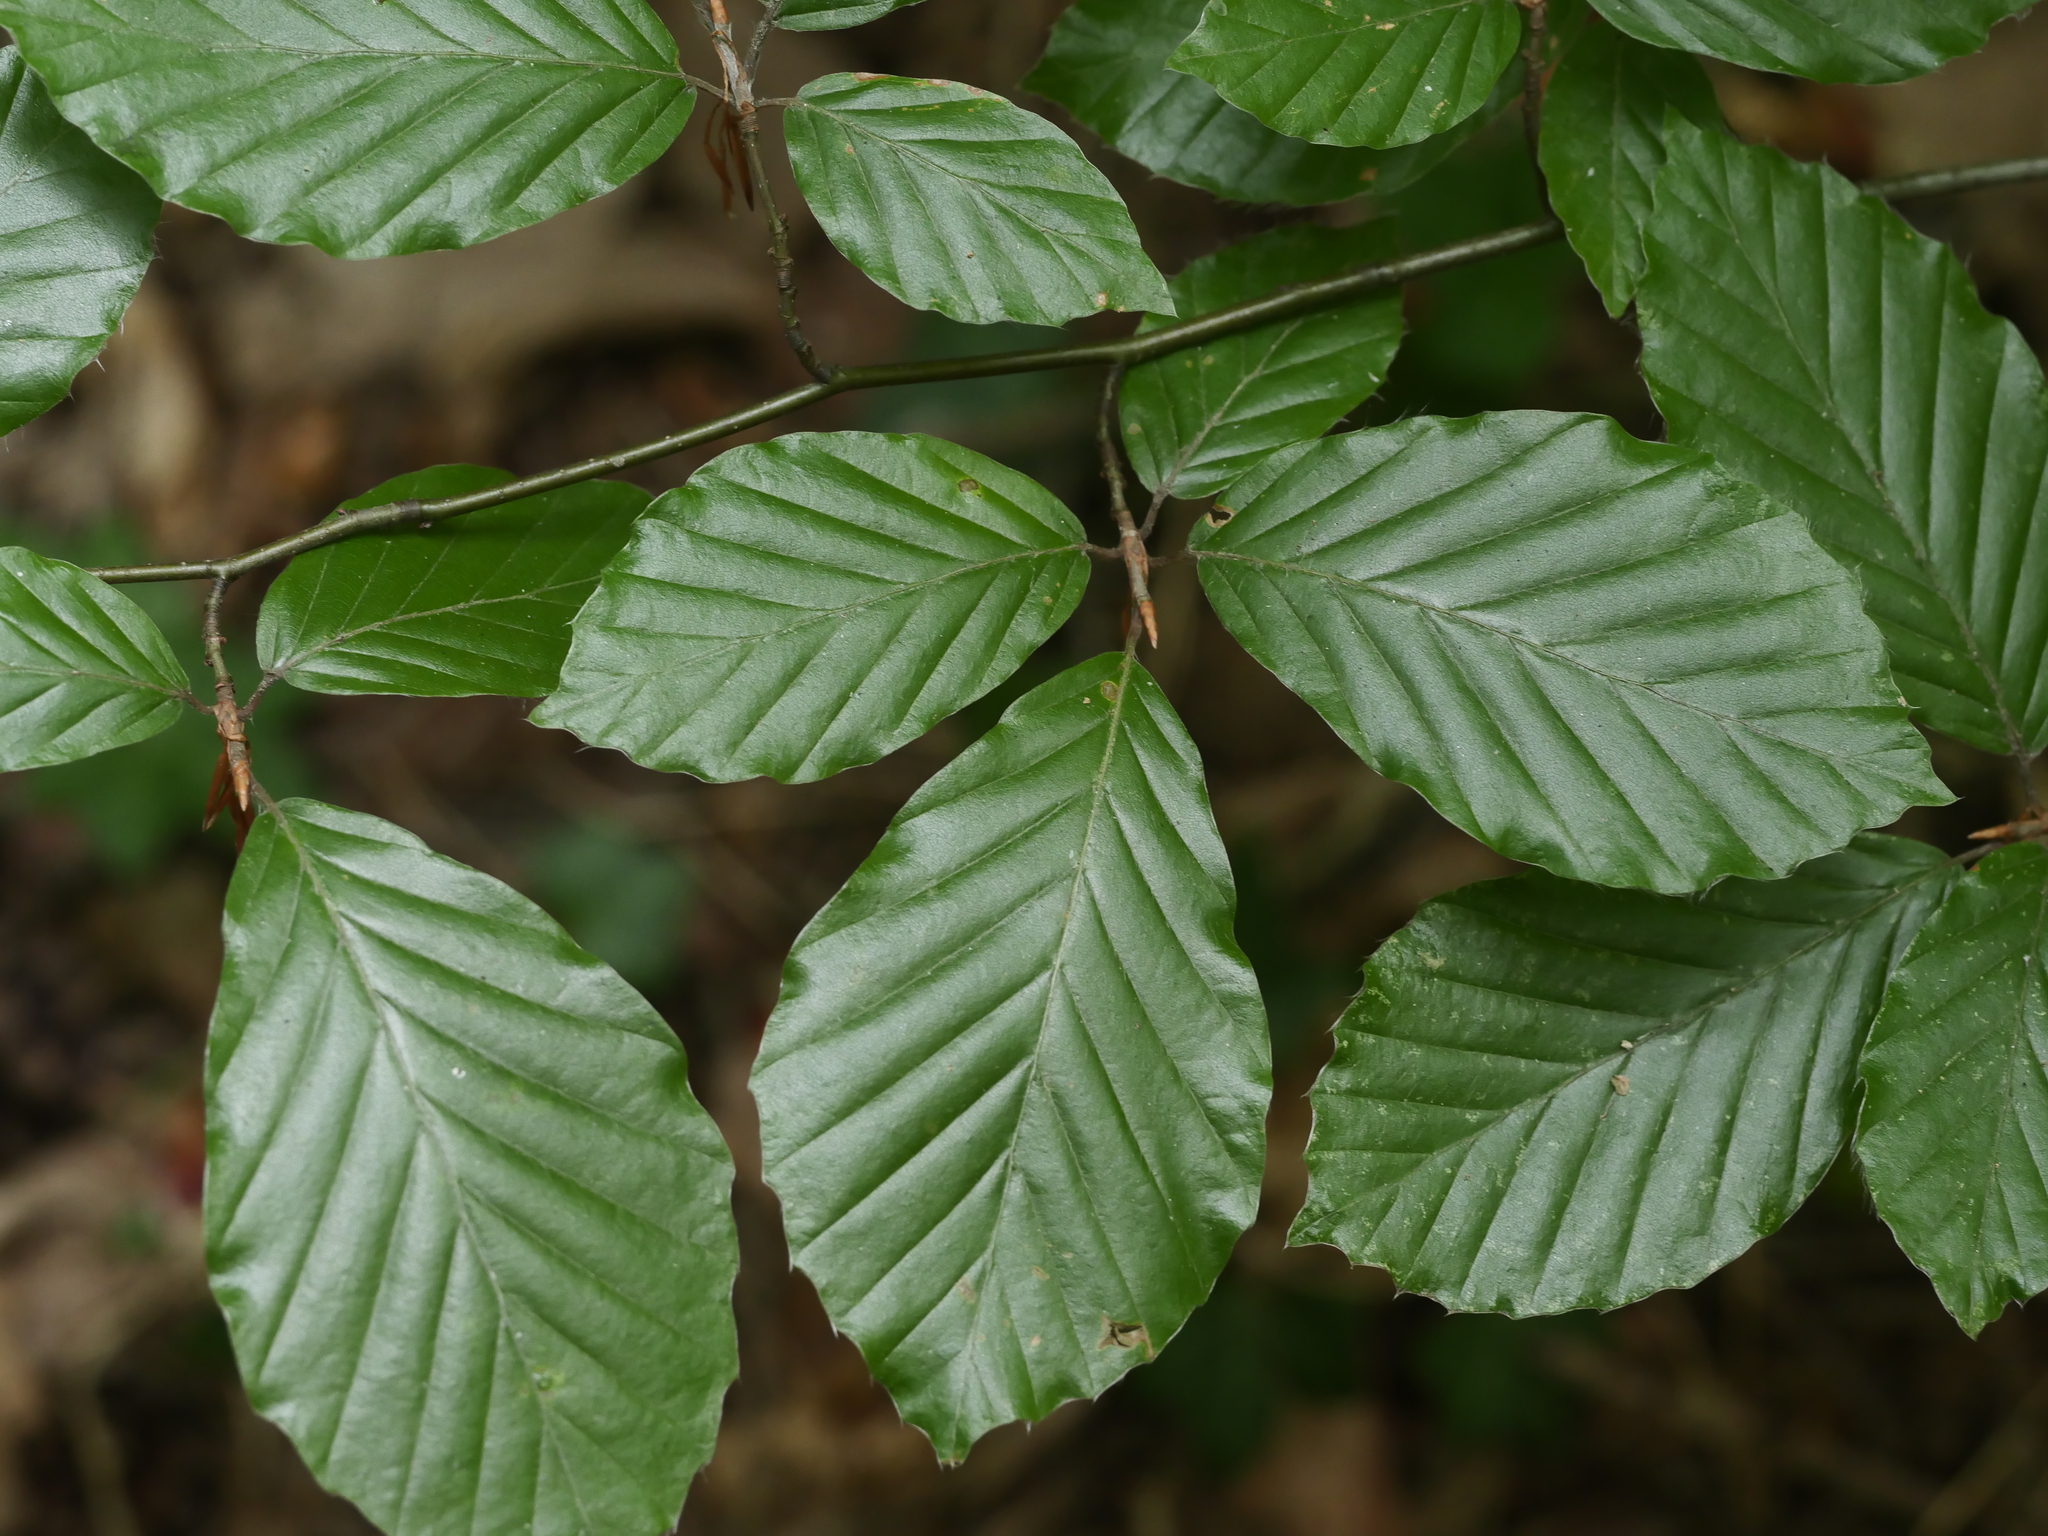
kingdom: Plantae
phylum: Tracheophyta
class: Magnoliopsida
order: Fagales
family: Fagaceae
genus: Fagus
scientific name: Fagus sylvatica
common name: Beech
